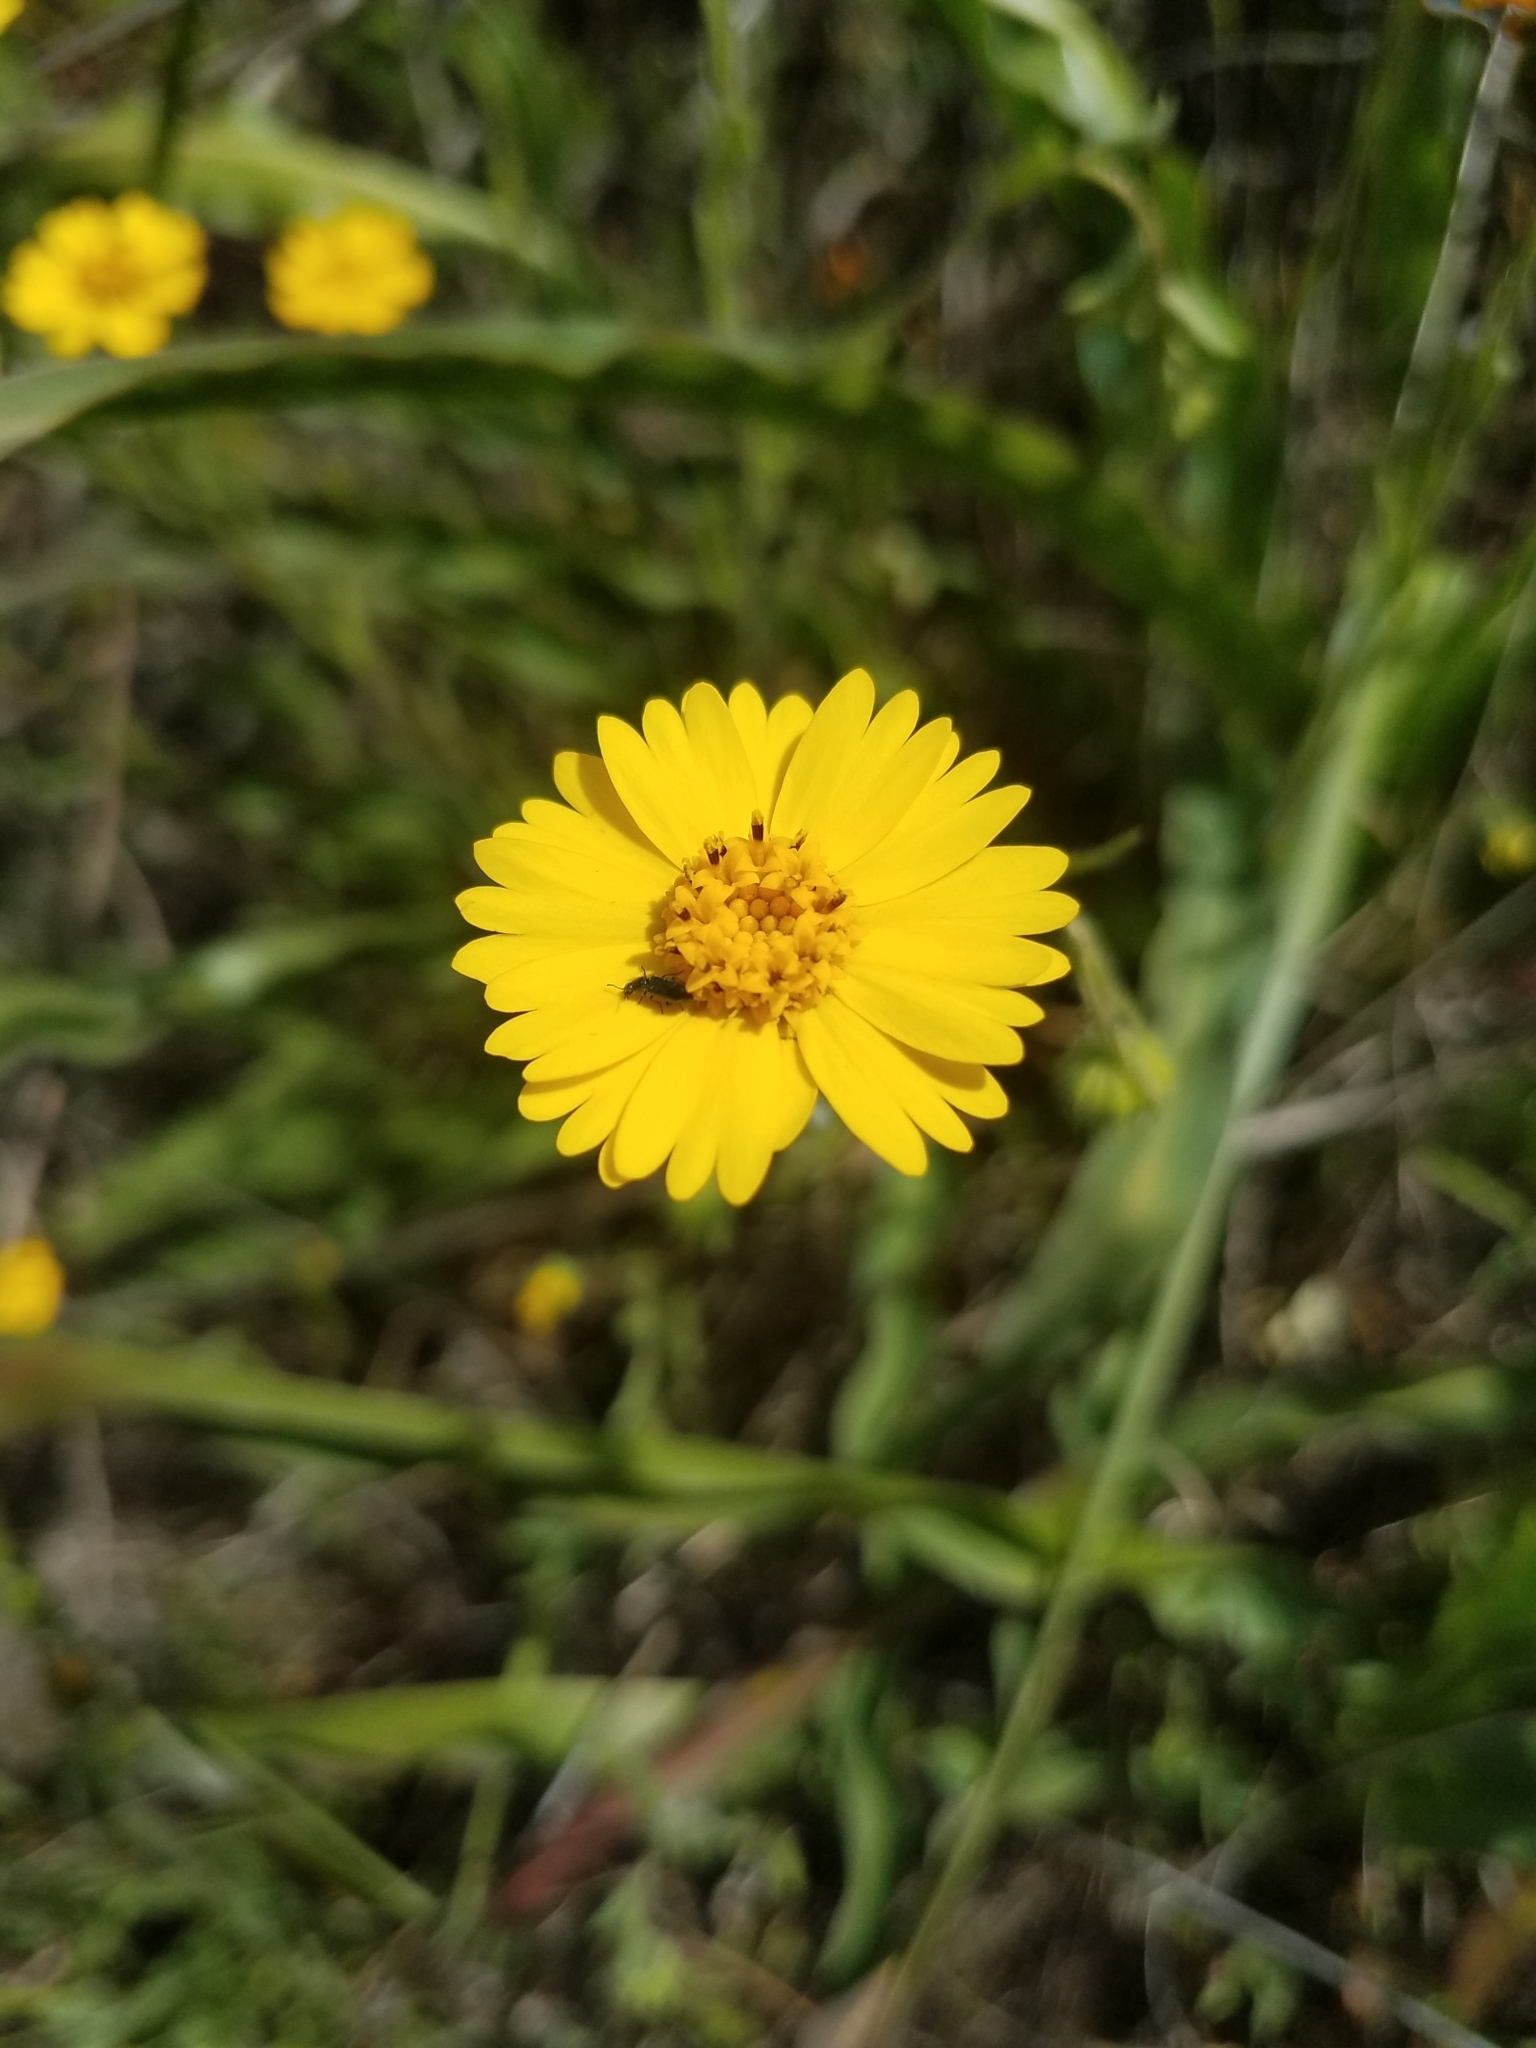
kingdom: Plantae
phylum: Tracheophyta
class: Magnoliopsida
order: Asterales
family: Asteraceae
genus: Layia
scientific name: Layia gaillardioides
